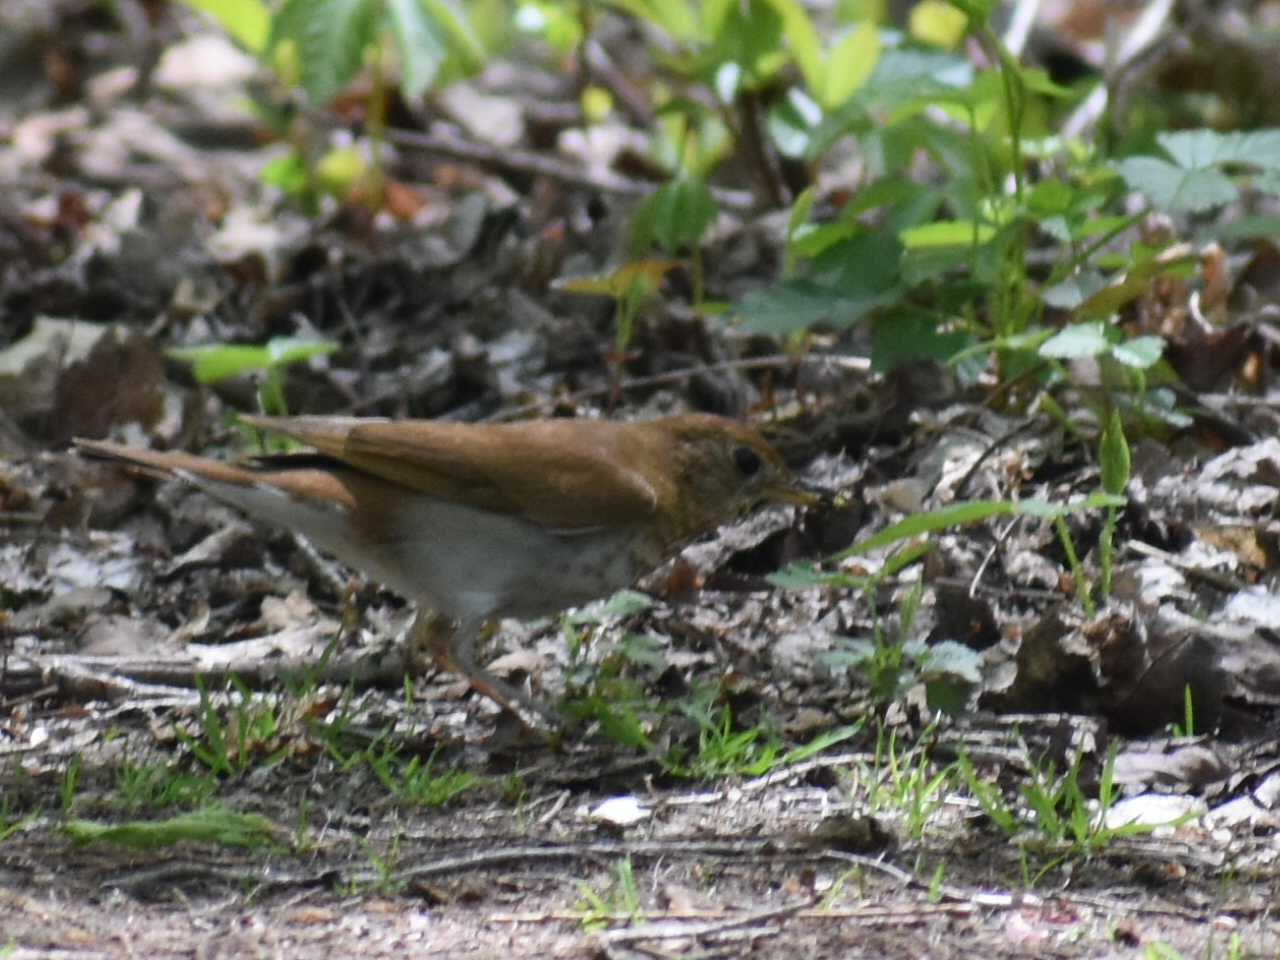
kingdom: Animalia
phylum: Chordata
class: Aves
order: Passeriformes
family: Turdidae
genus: Catharus
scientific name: Catharus fuscescens
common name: Veery
